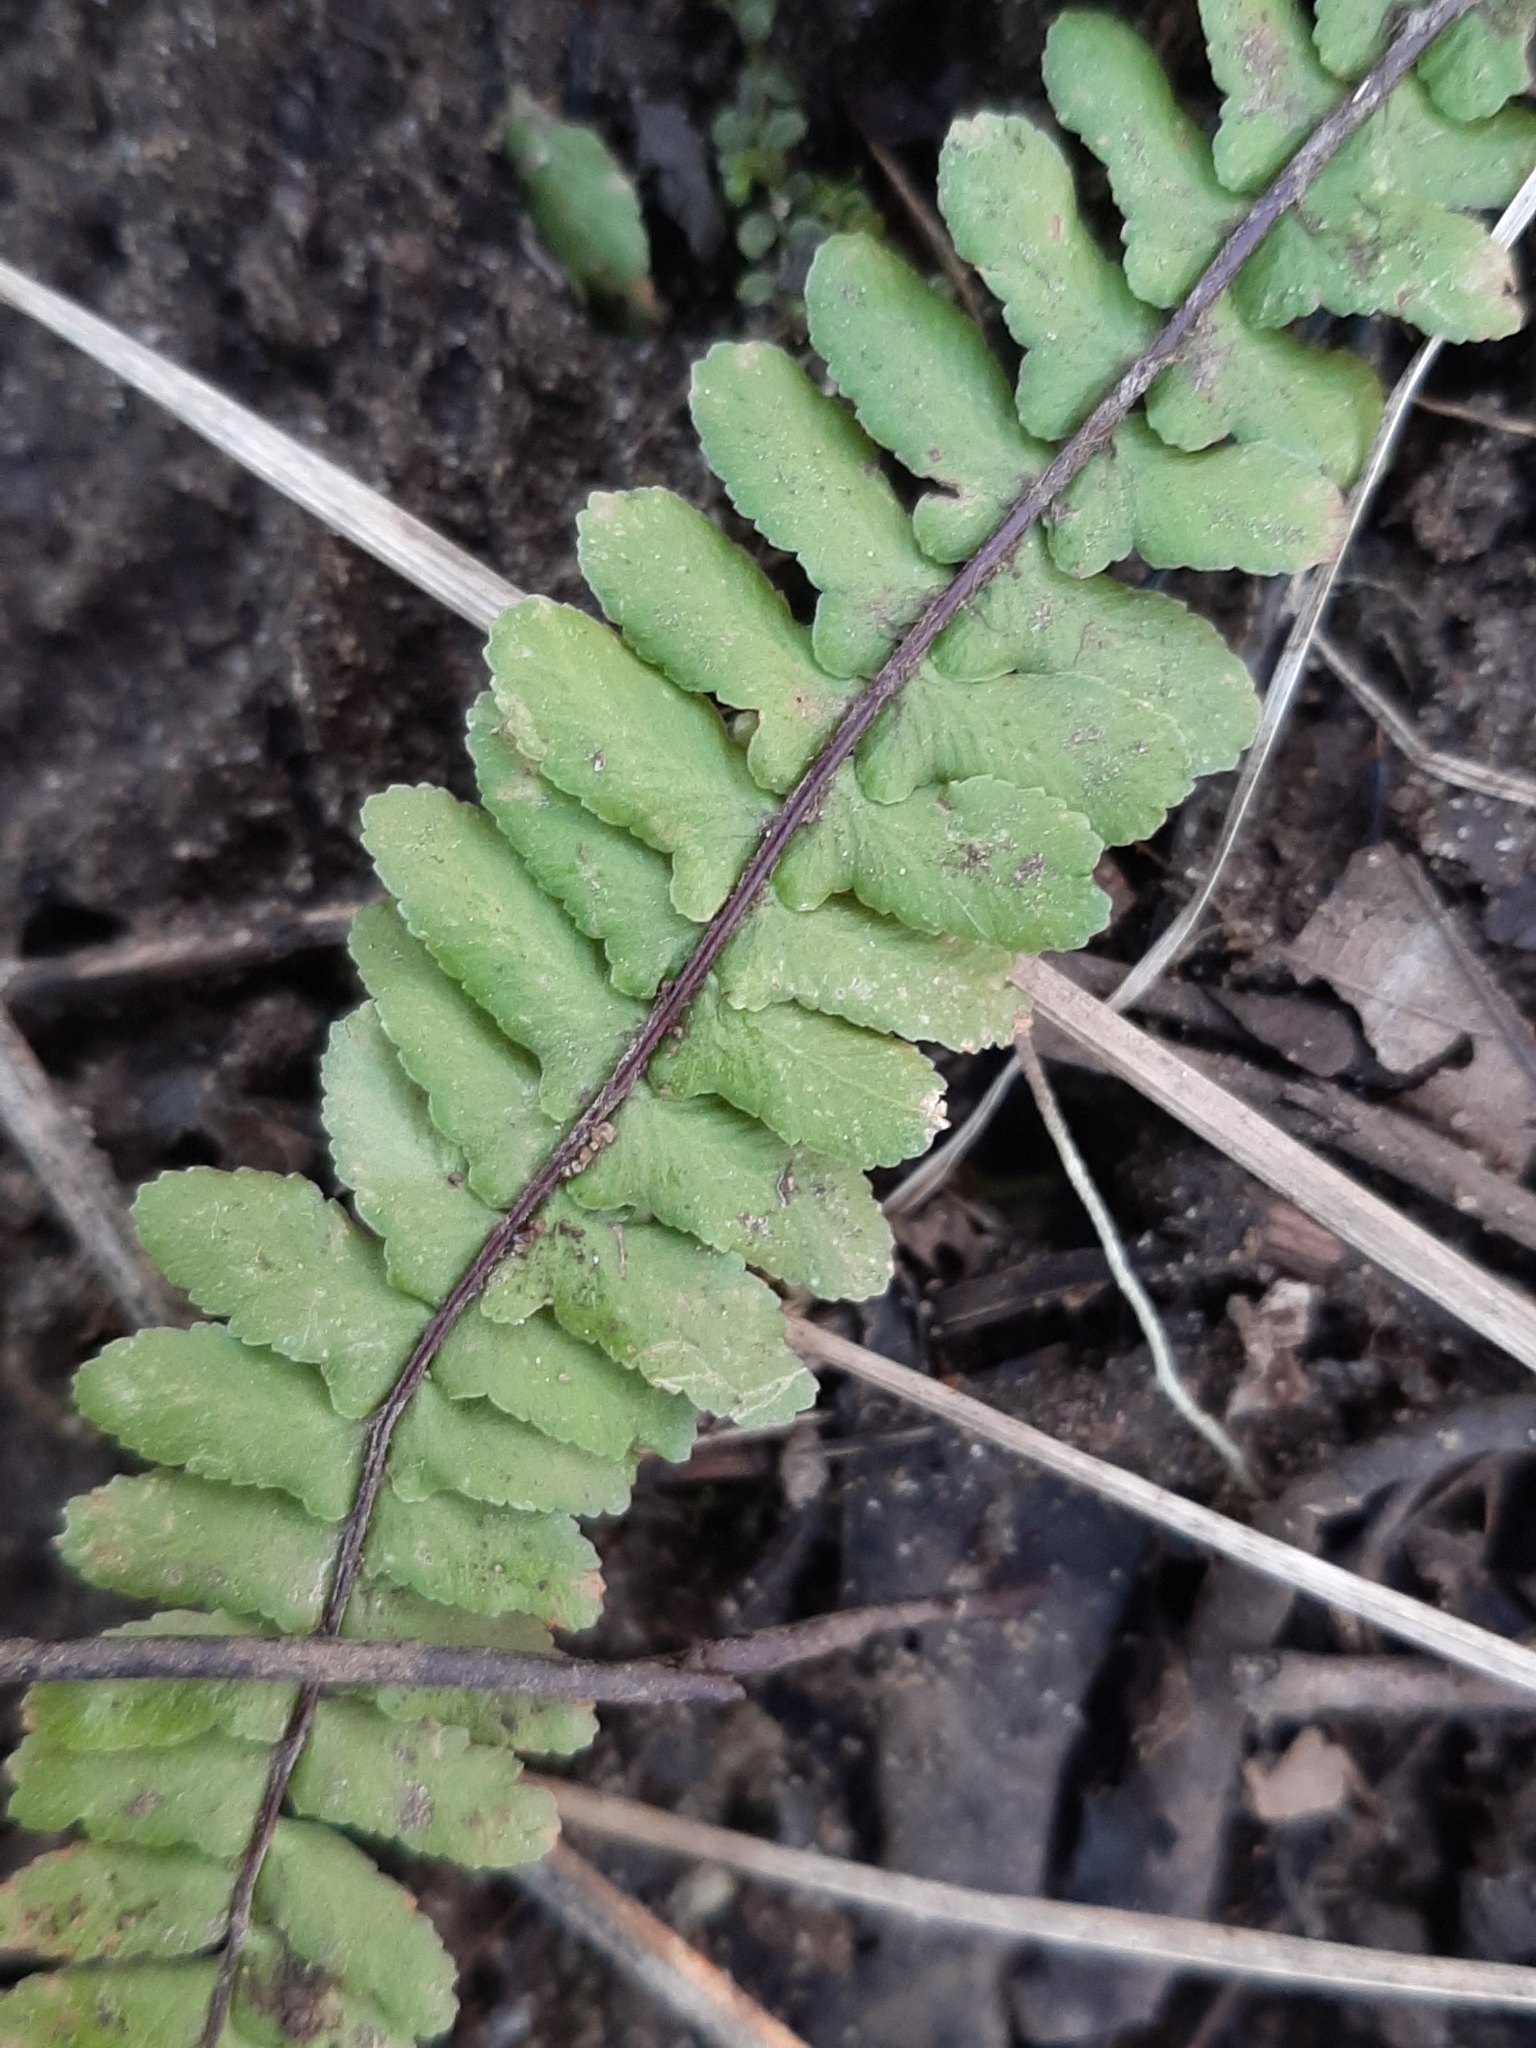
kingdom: Plantae
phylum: Tracheophyta
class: Polypodiopsida
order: Polypodiales
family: Aspleniaceae
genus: Asplenium
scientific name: Asplenium platyneuron
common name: Ebony spleenwort
